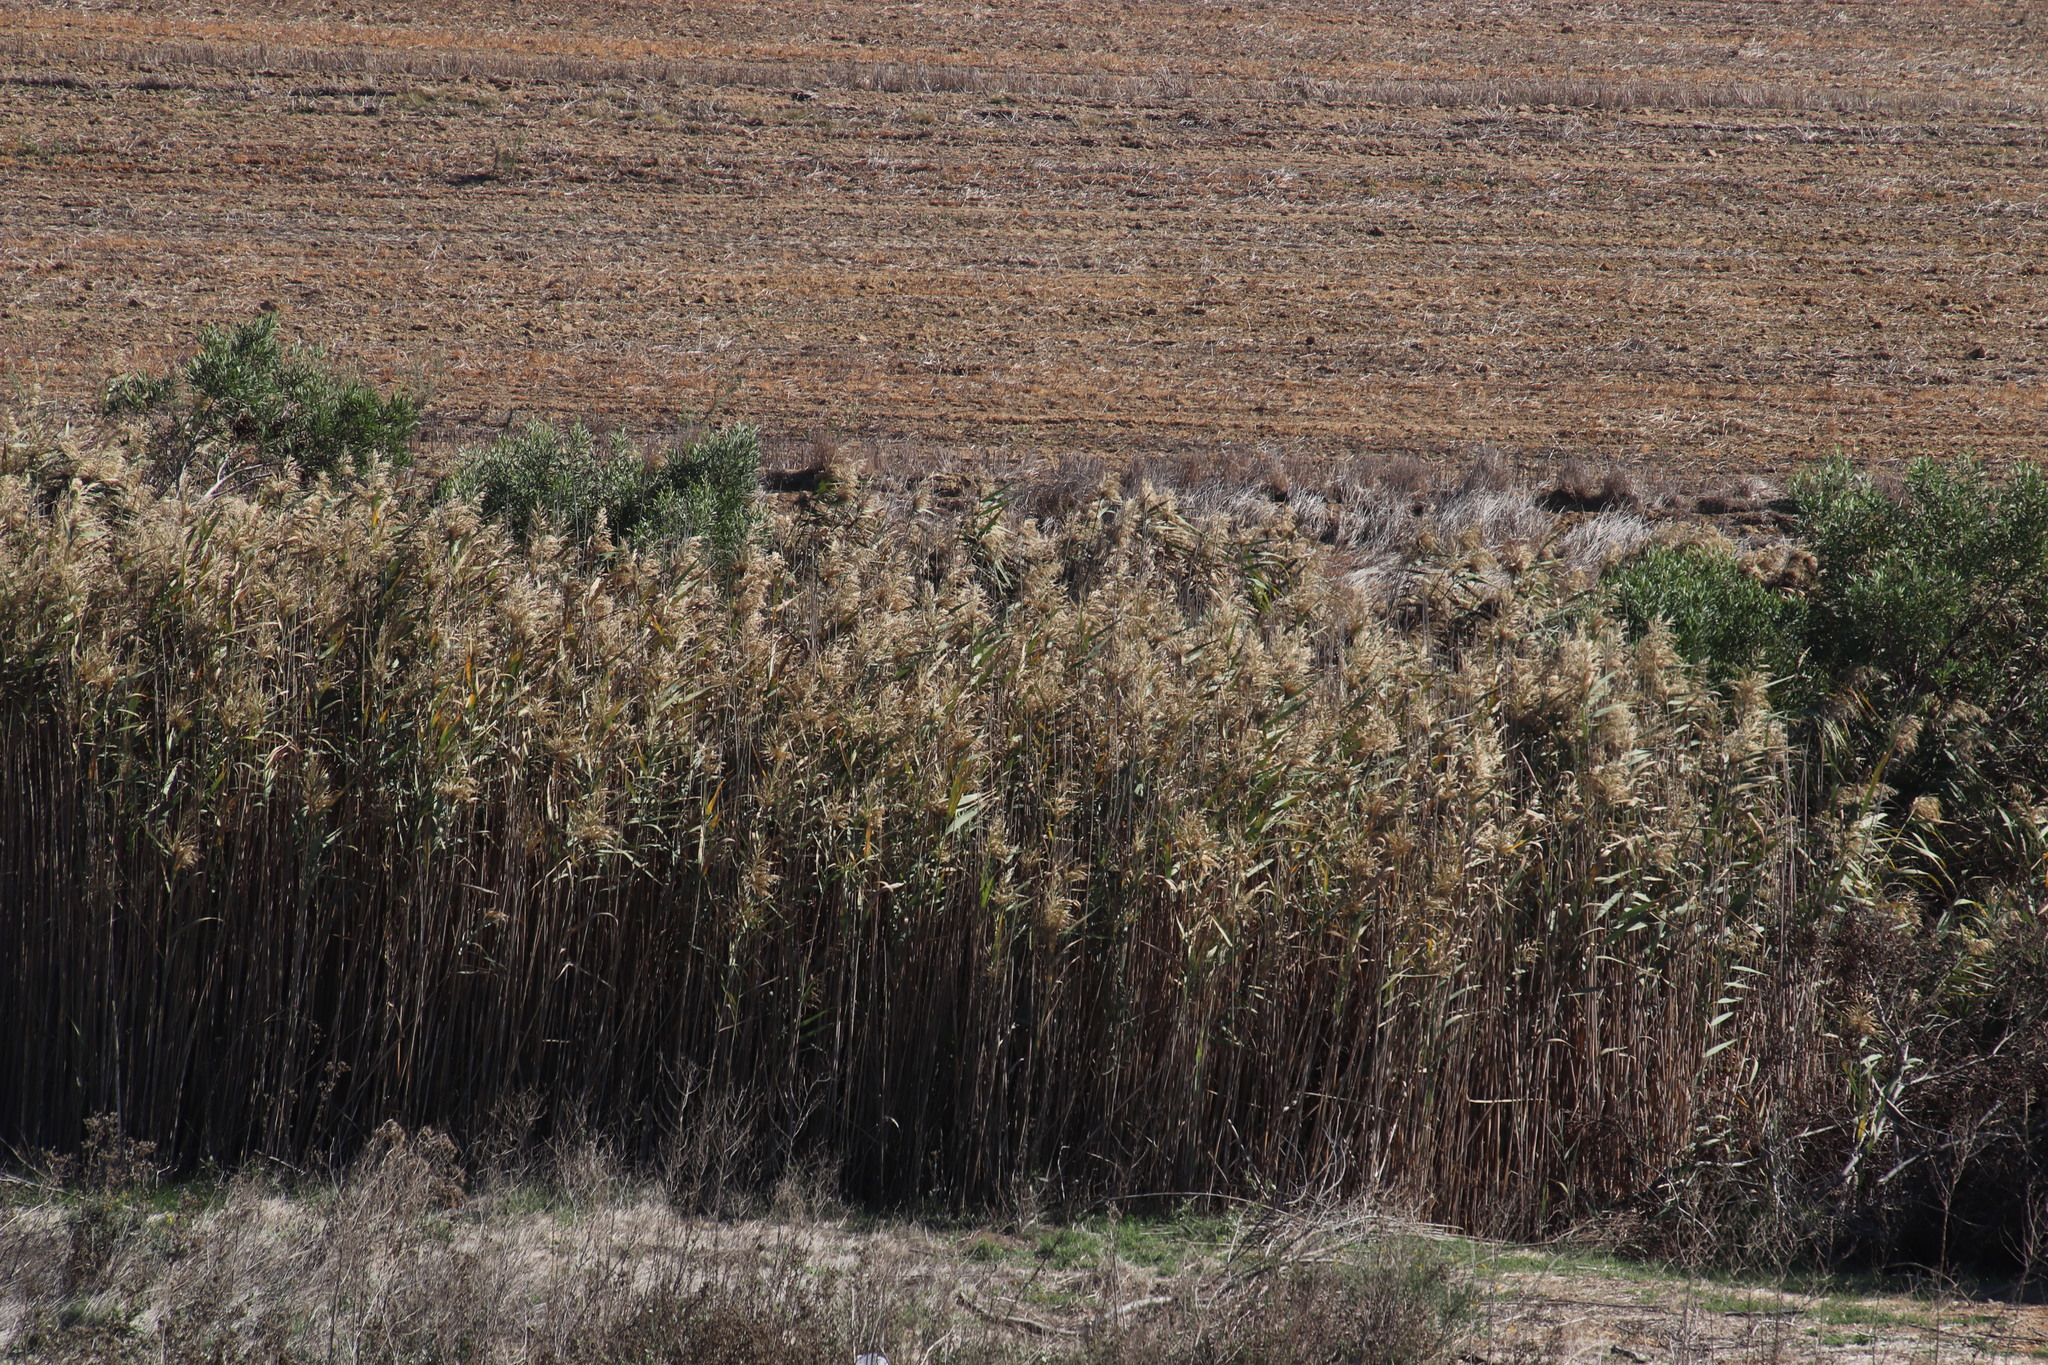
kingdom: Plantae
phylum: Tracheophyta
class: Liliopsida
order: Poales
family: Poaceae
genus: Phragmites
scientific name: Phragmites australis
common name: Common reed
